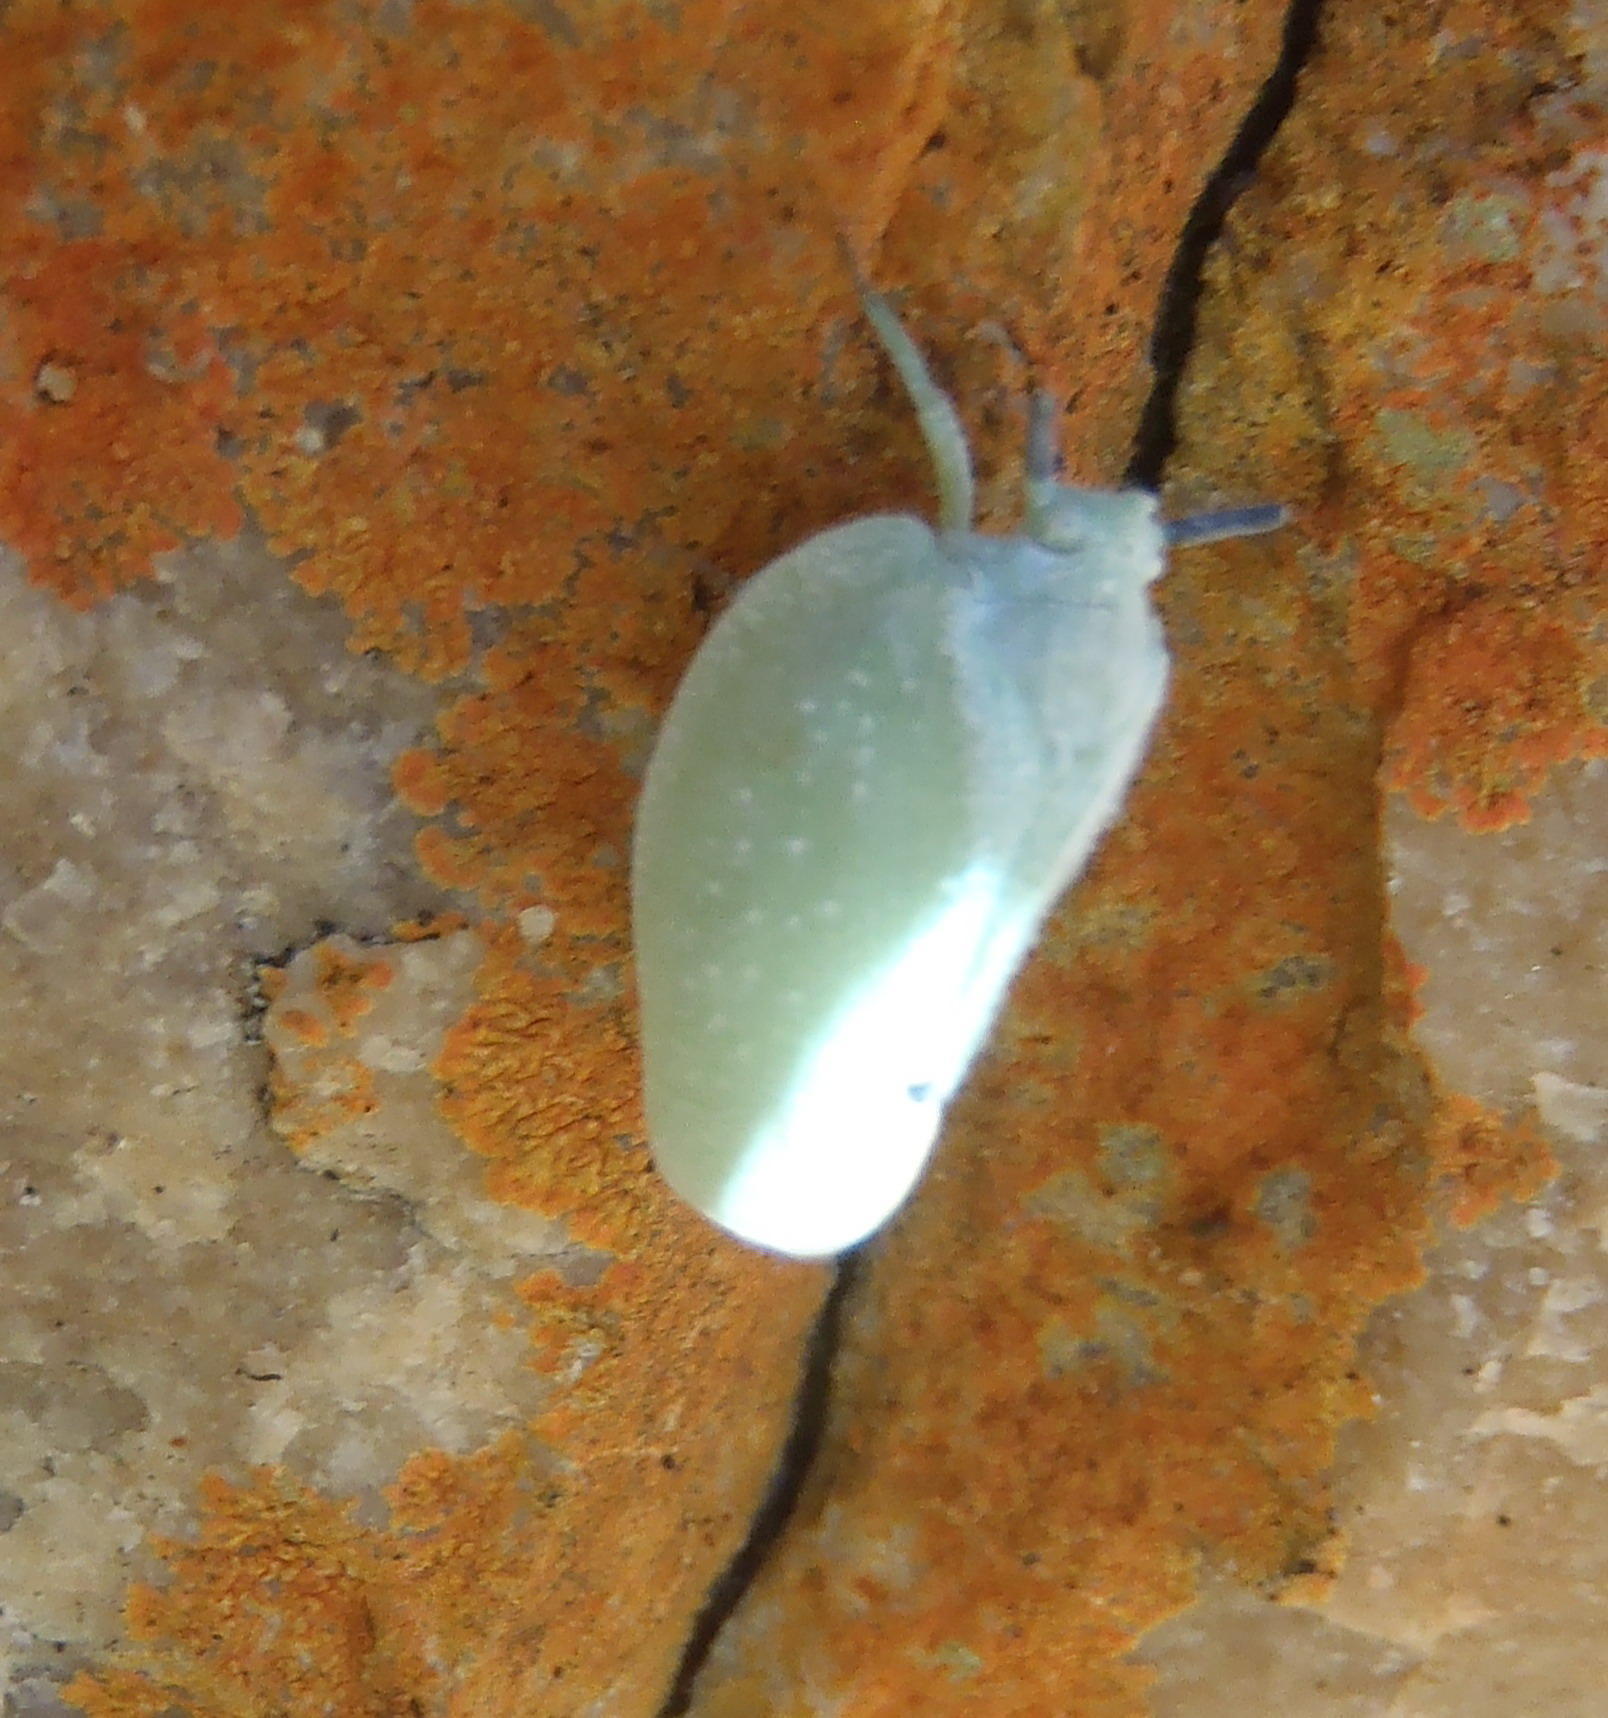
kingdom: Animalia
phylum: Arthropoda
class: Insecta
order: Hemiptera
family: Flatidae
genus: Dalapax
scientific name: Dalapax postica
